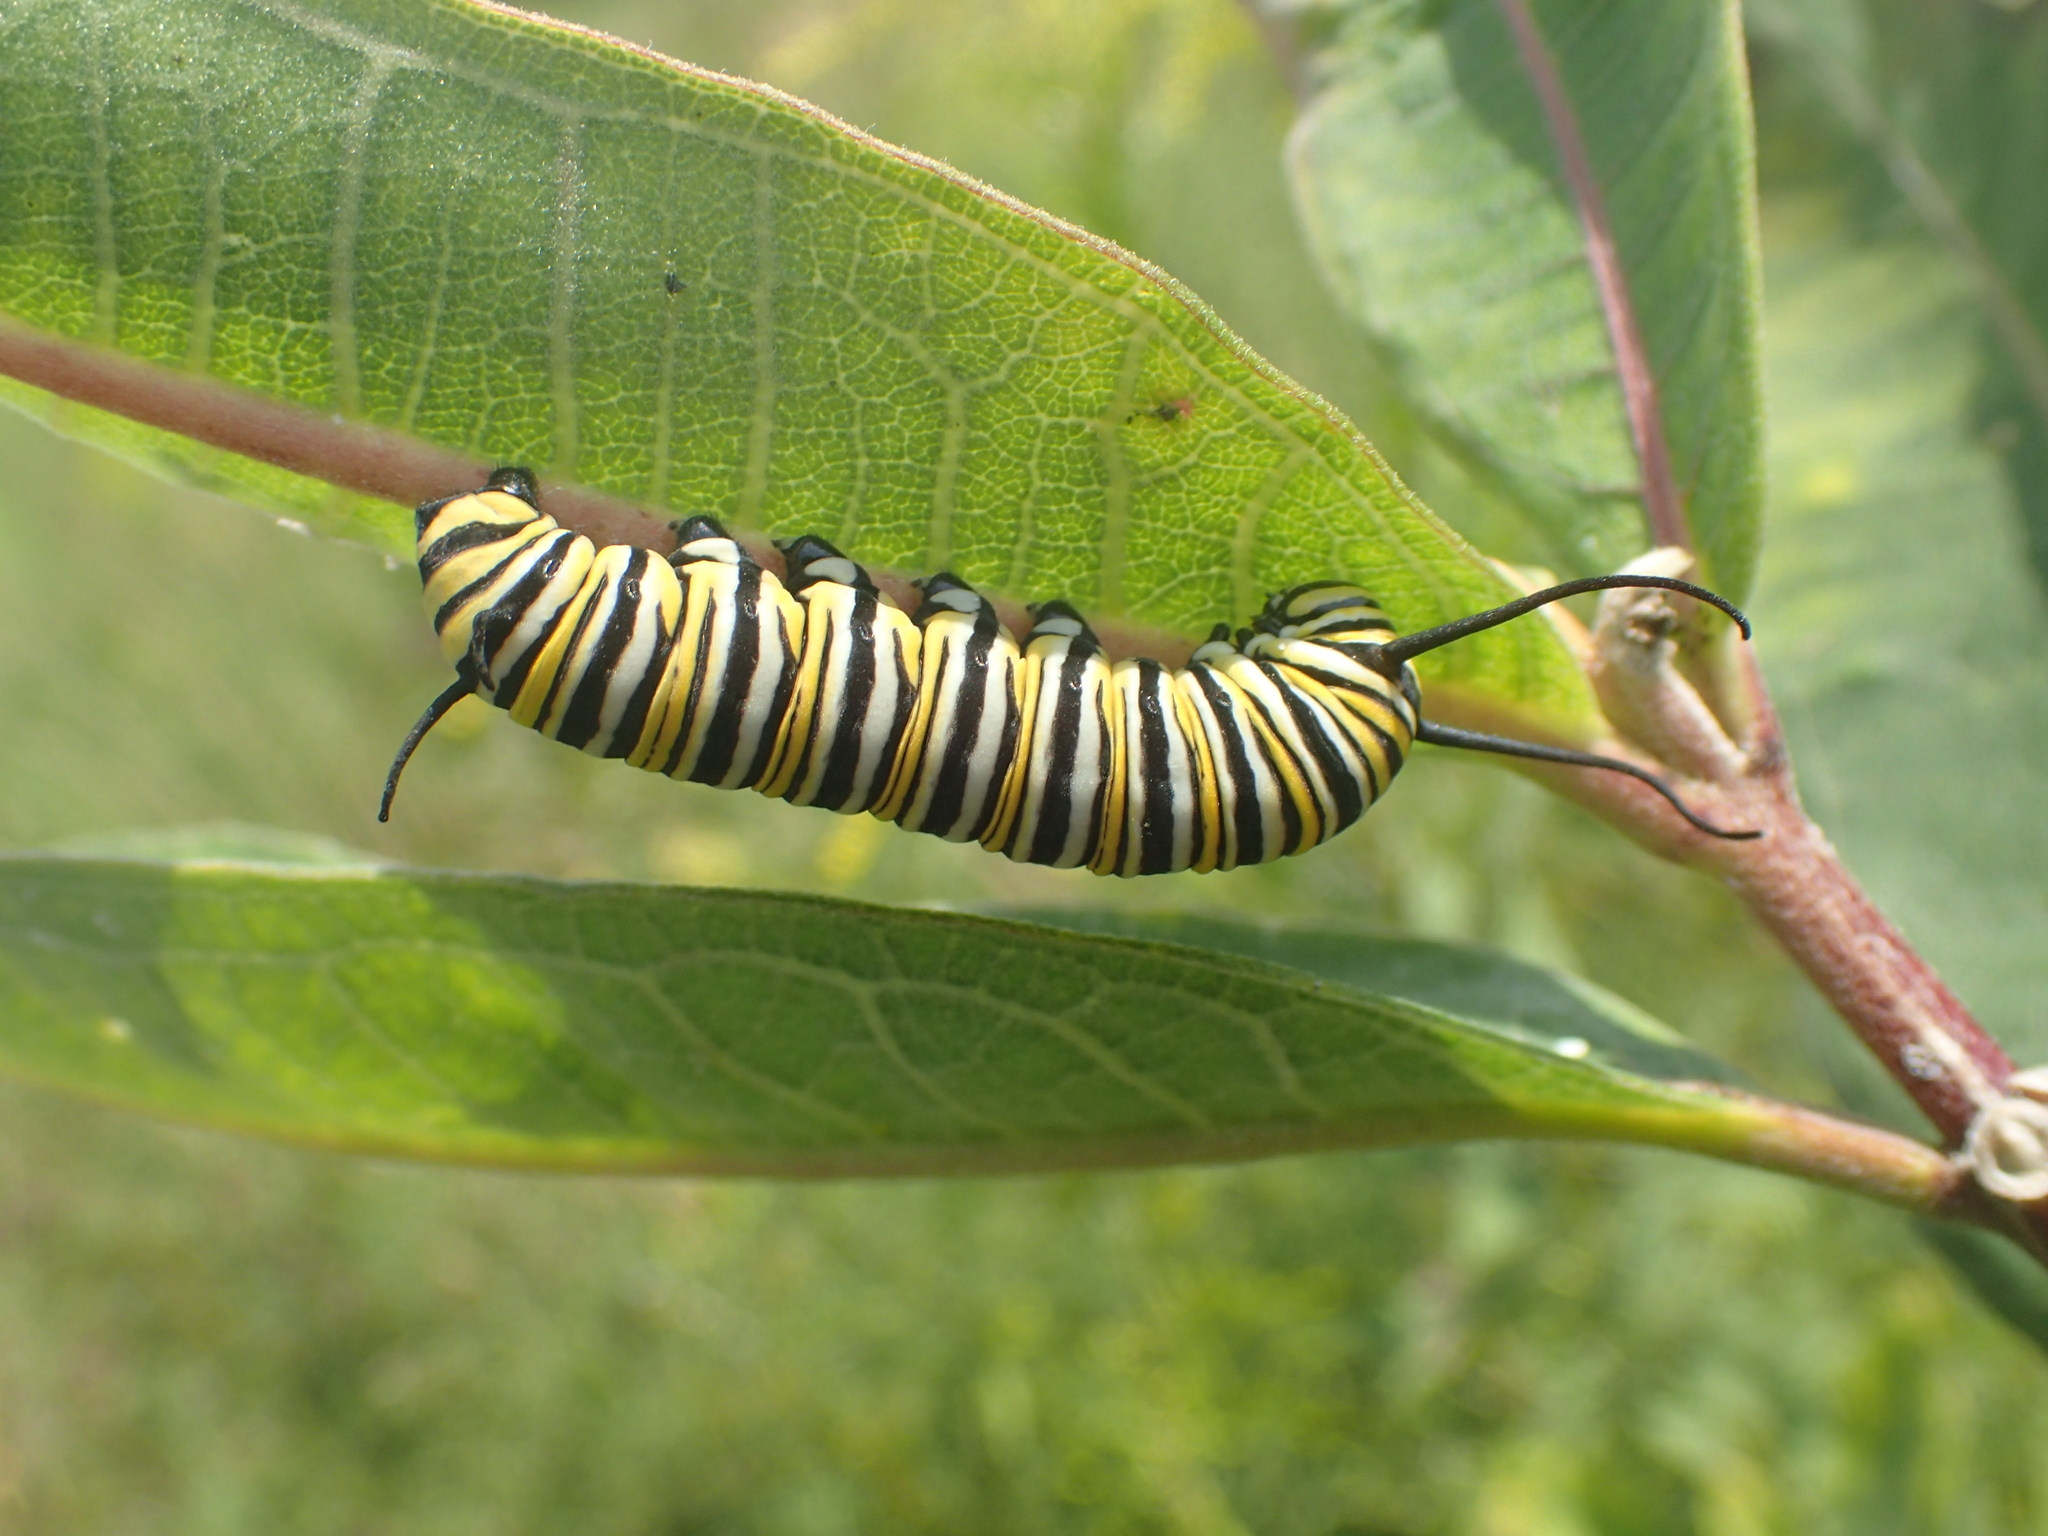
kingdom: Animalia
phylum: Arthropoda
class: Insecta
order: Lepidoptera
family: Nymphalidae
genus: Danaus
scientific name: Danaus plexippus
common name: Monarch
